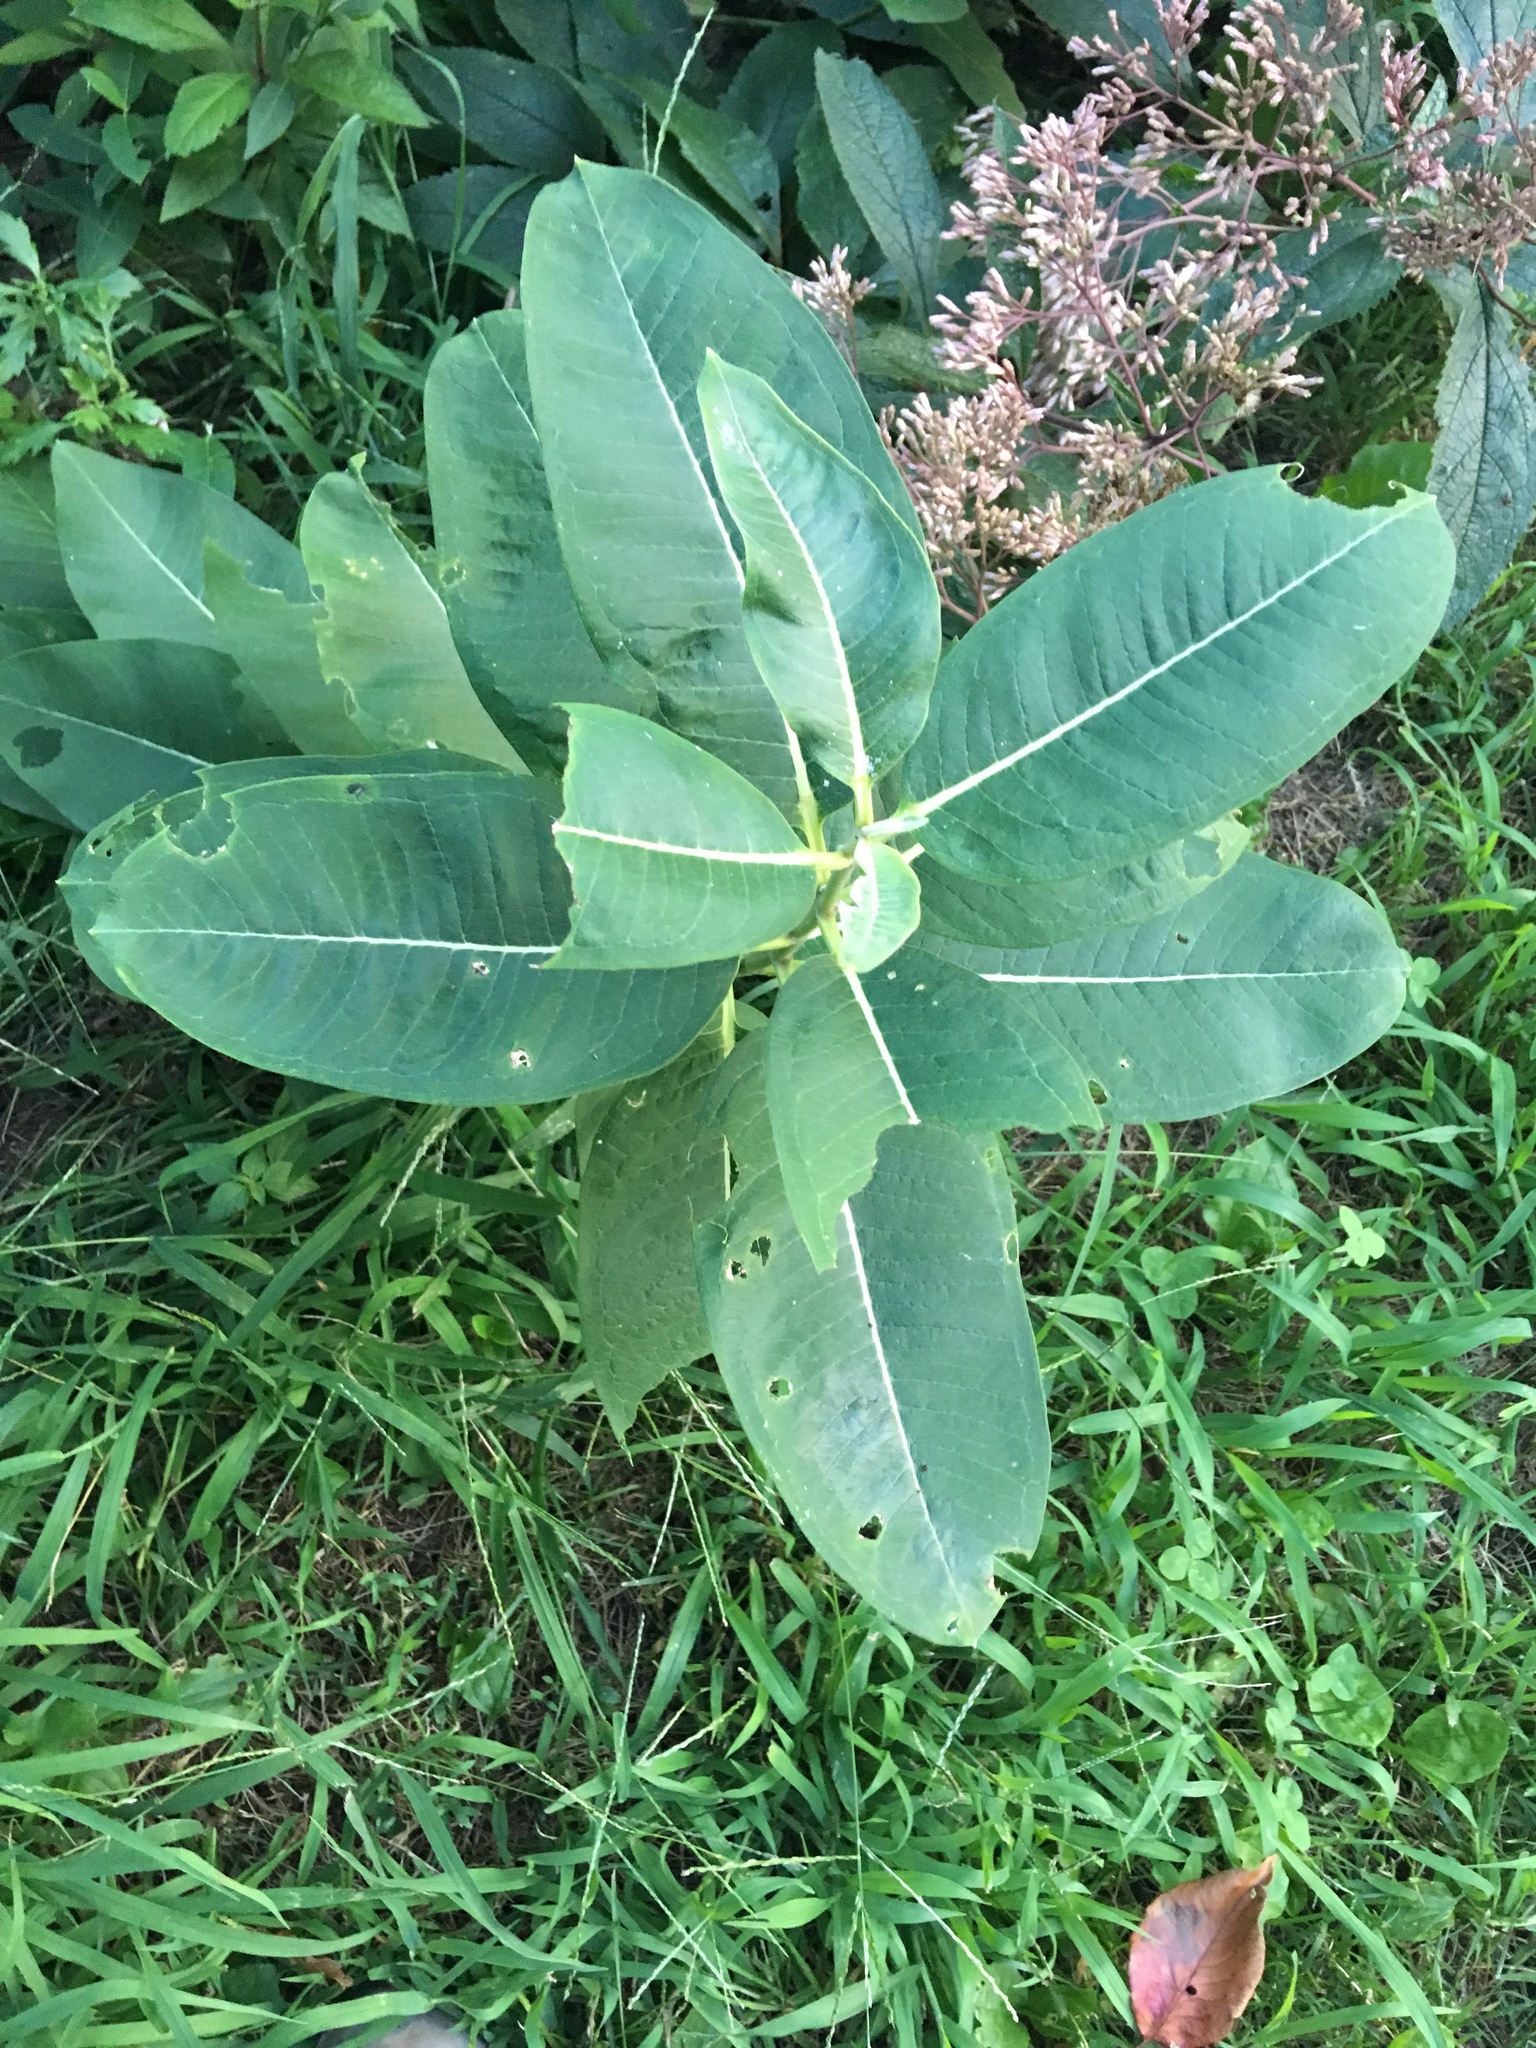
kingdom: Plantae
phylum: Tracheophyta
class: Magnoliopsida
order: Gentianales
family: Apocynaceae
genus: Asclepias
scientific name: Asclepias syriaca
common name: Common milkweed
